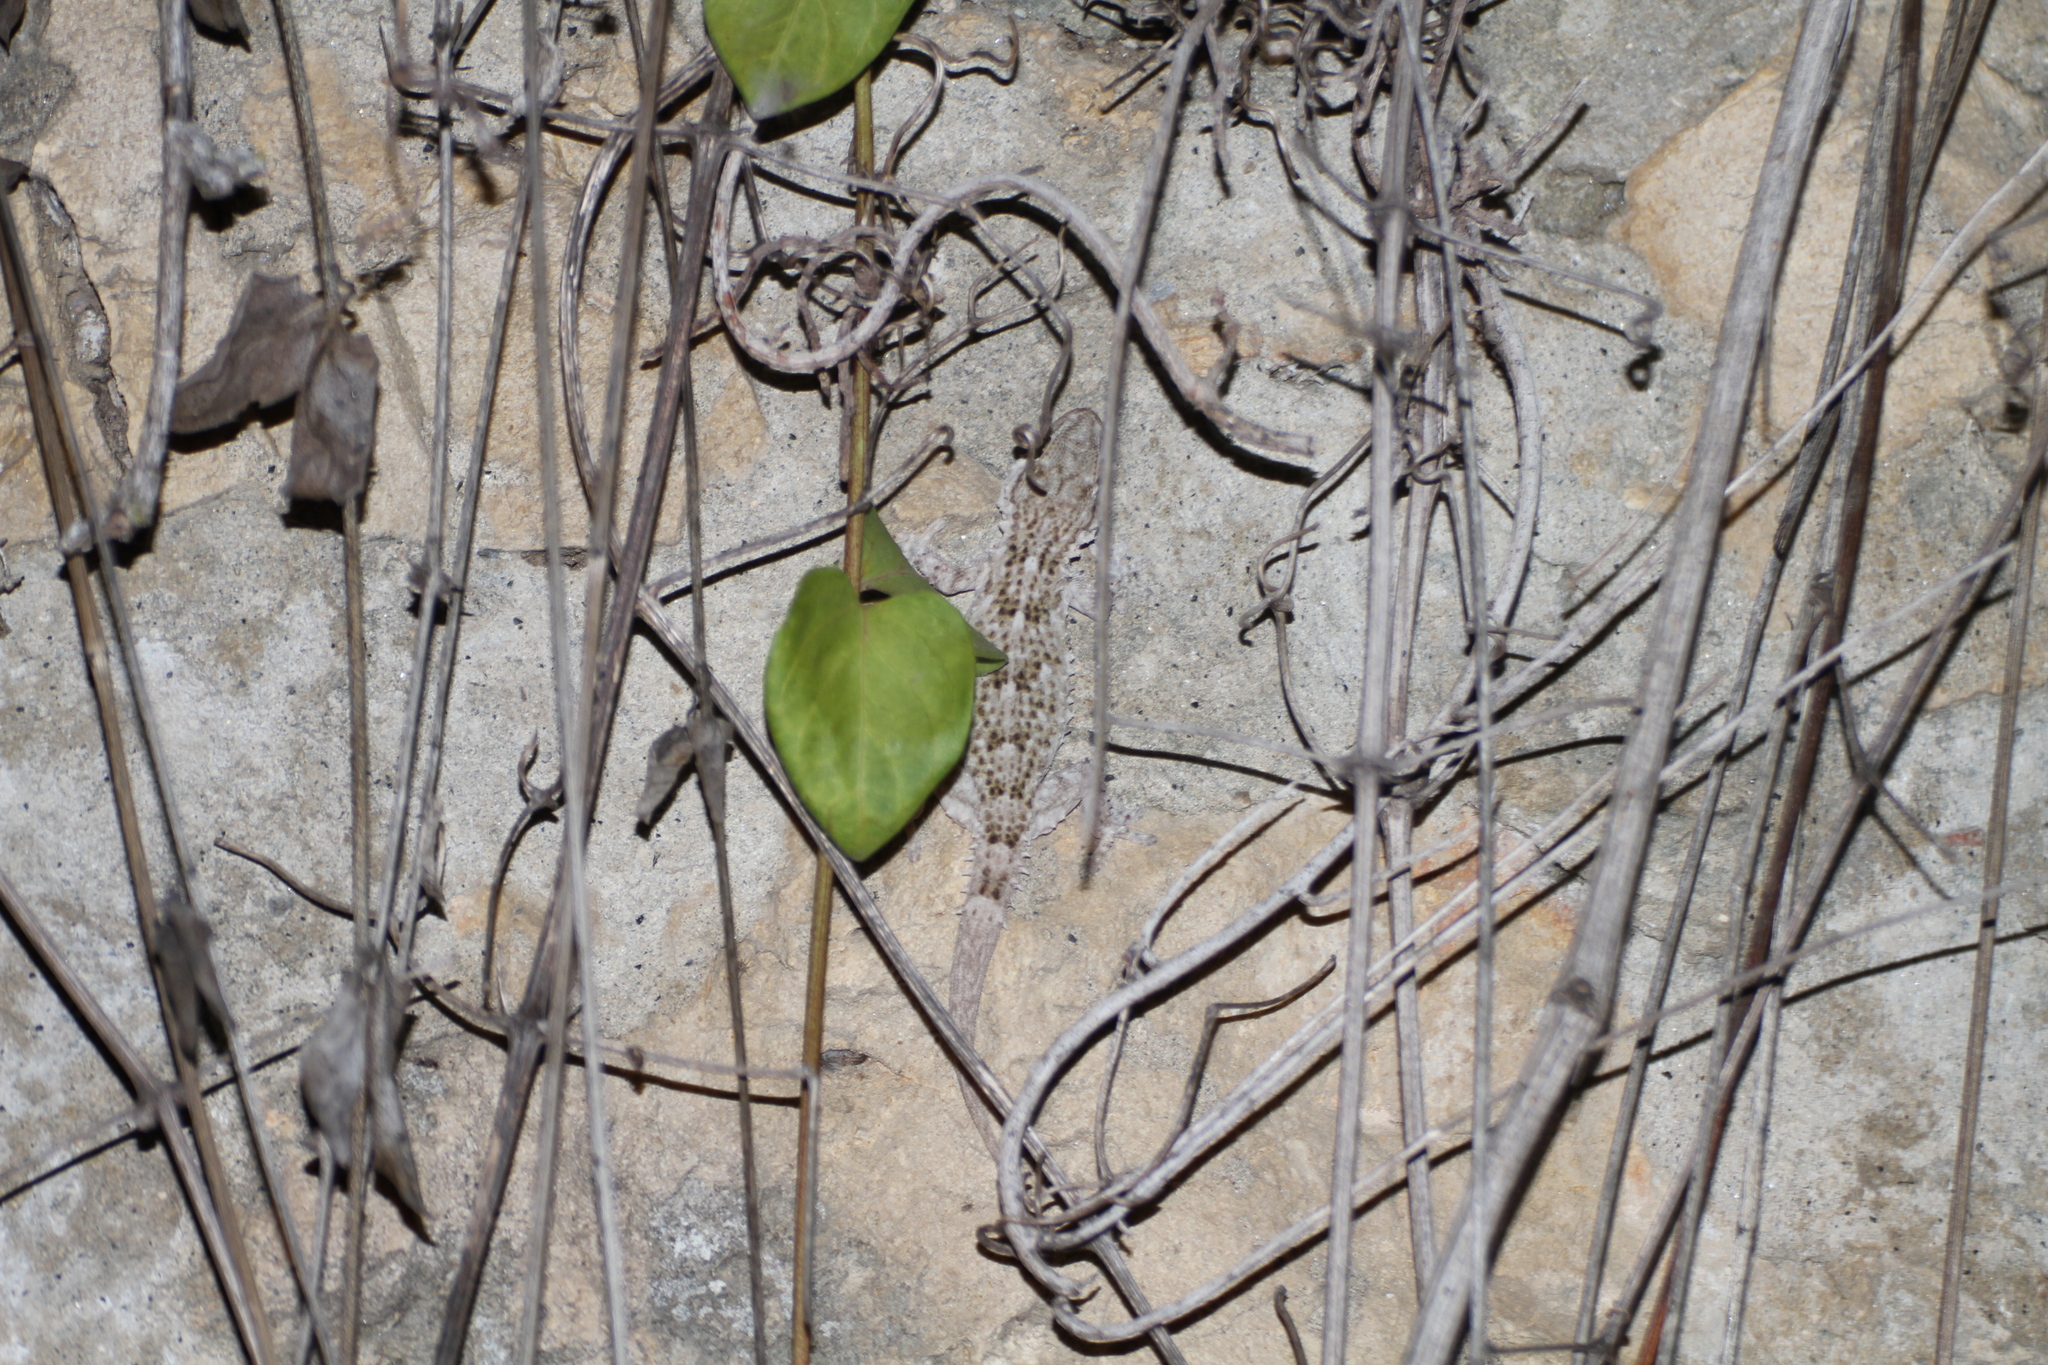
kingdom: Animalia
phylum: Chordata
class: Squamata
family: Phyllodactylidae
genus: Tarentola
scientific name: Tarentola mauritanica
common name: Moorish gecko
